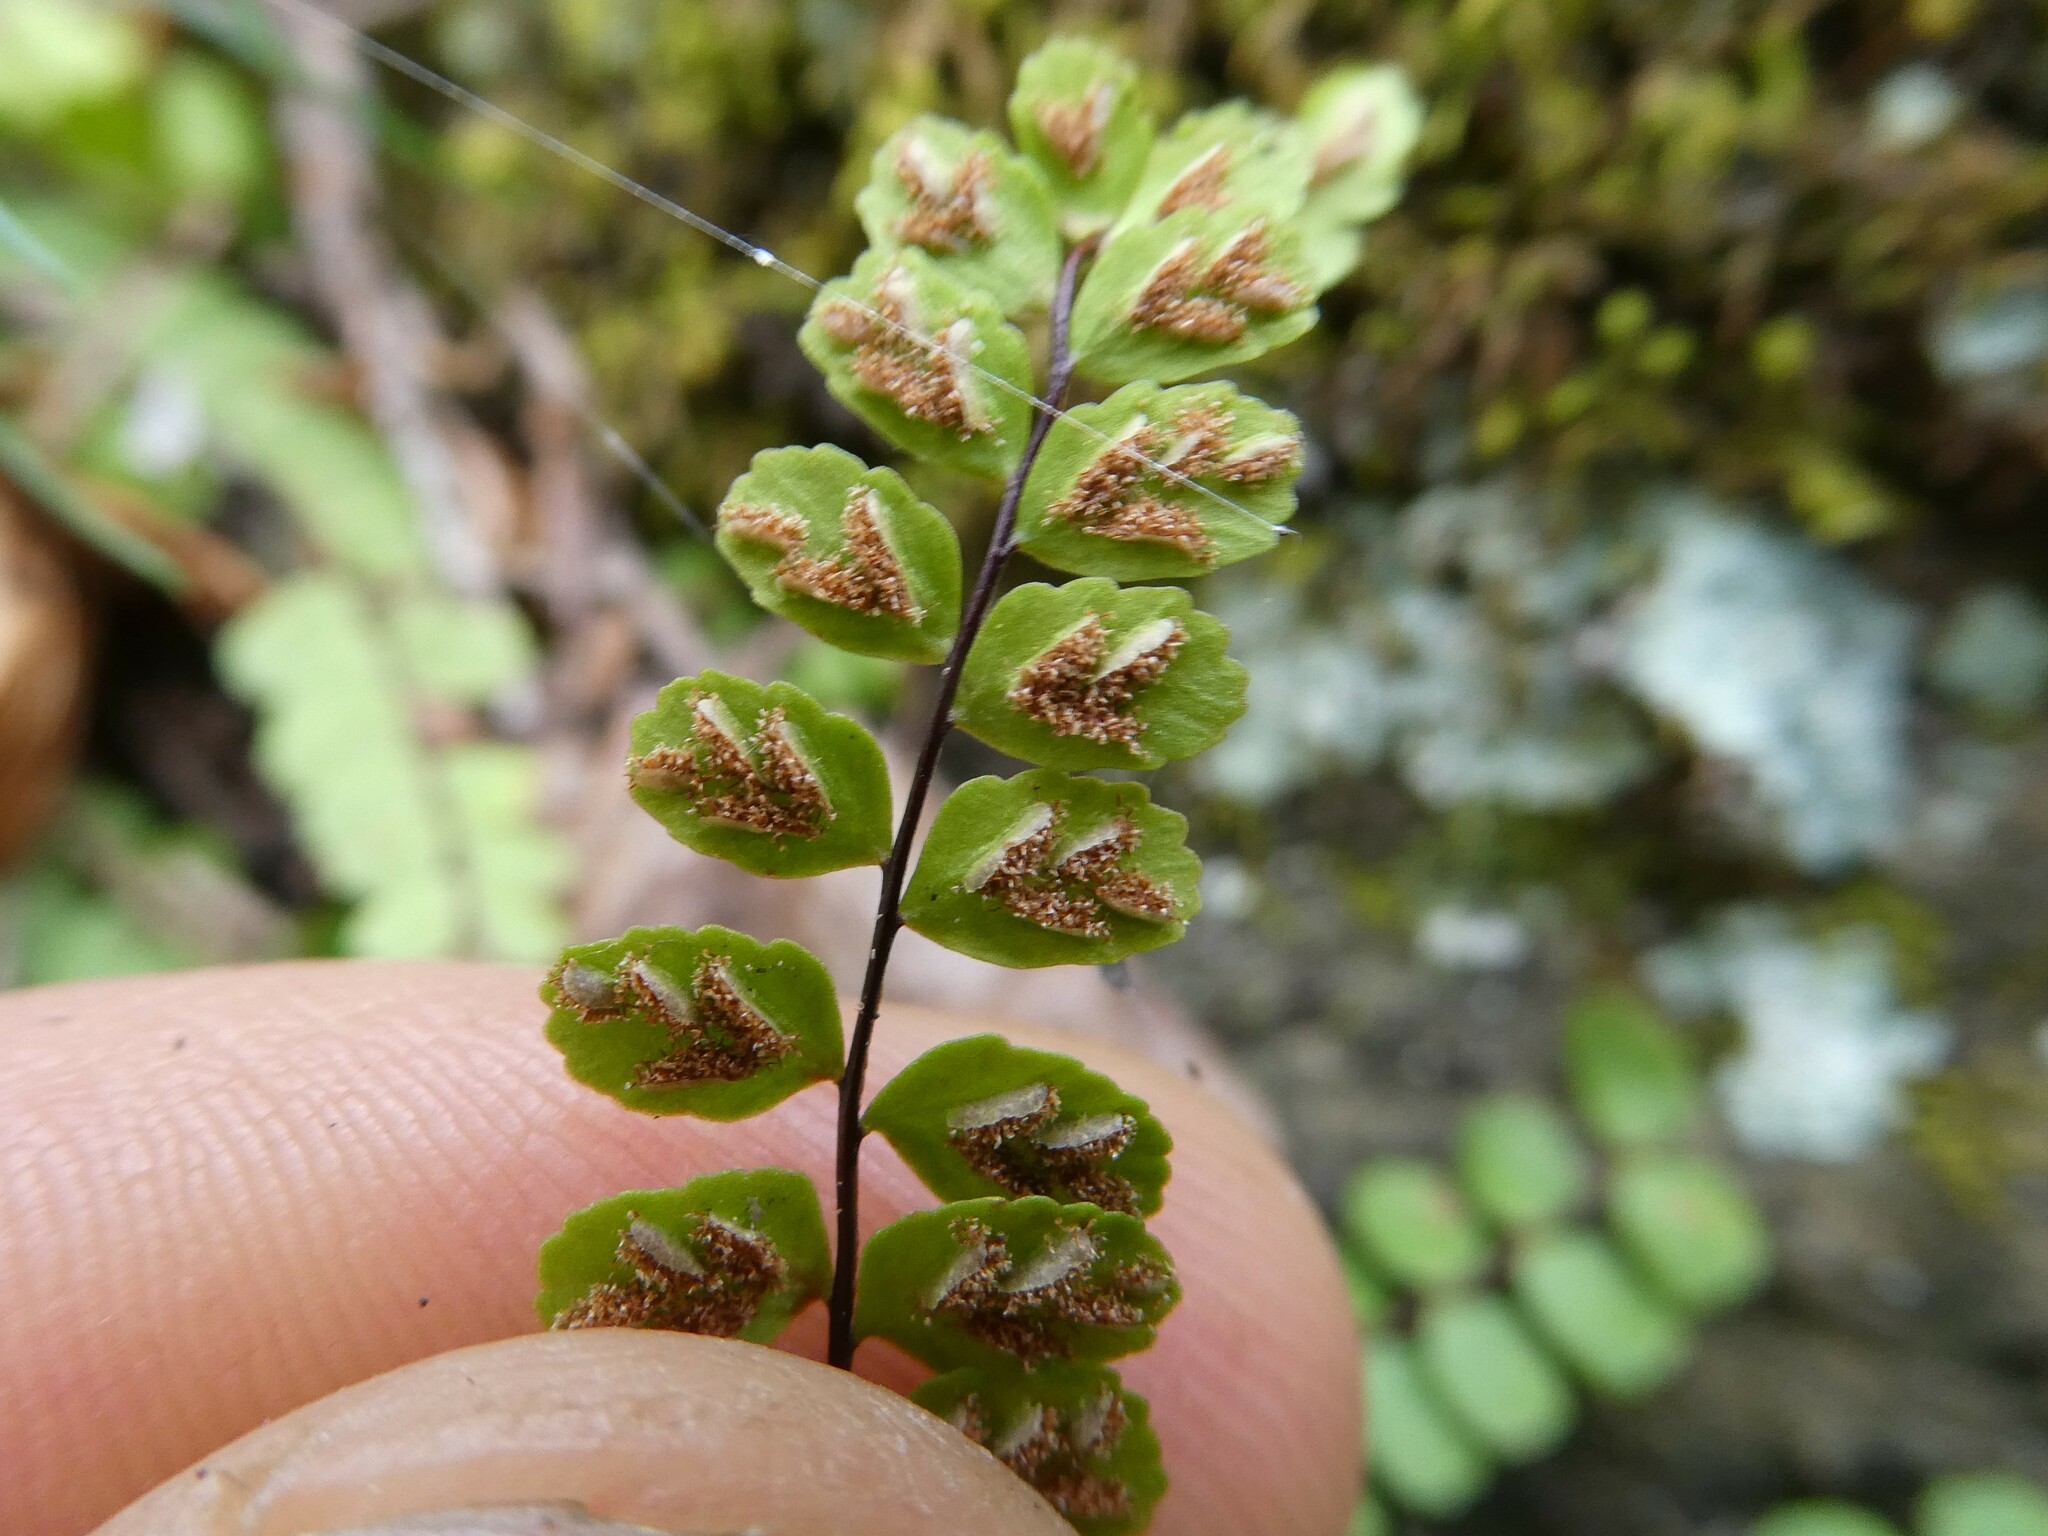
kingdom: Plantae
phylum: Tracheophyta
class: Polypodiopsida
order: Polypodiales
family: Aspleniaceae
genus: Asplenium
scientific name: Asplenium trichomanes
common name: Maidenhair spleenwort
